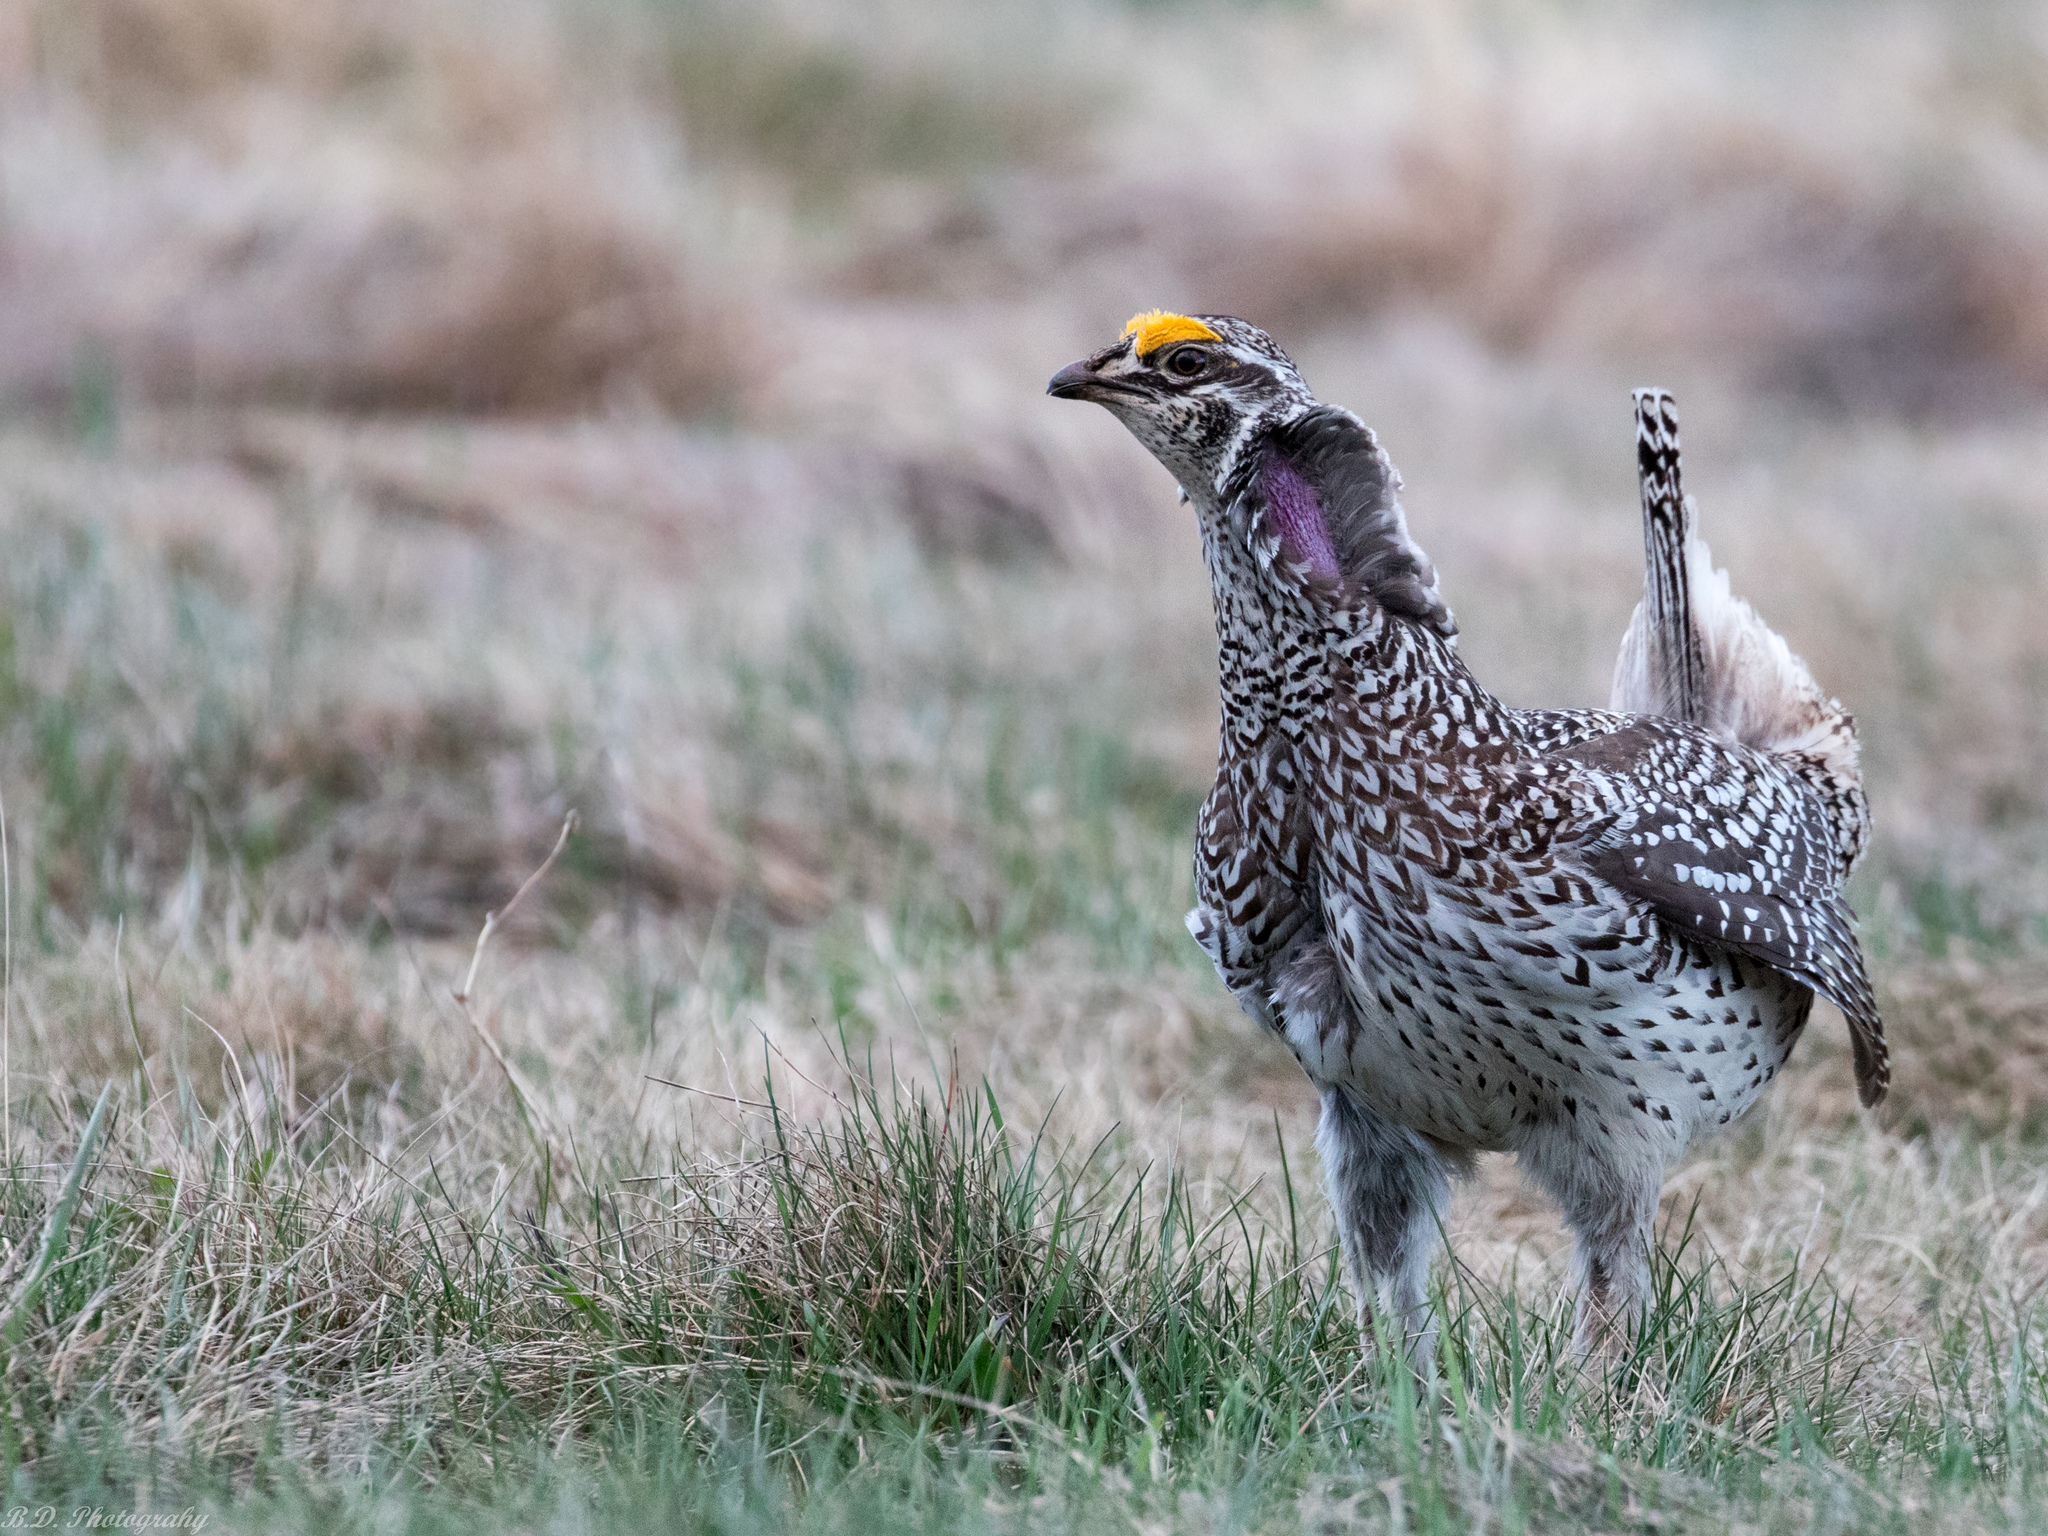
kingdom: Animalia
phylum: Chordata
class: Aves
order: Galliformes
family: Phasianidae
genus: Tympanuchus
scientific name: Tympanuchus phasianellus
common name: Sharp-tailed grouse
